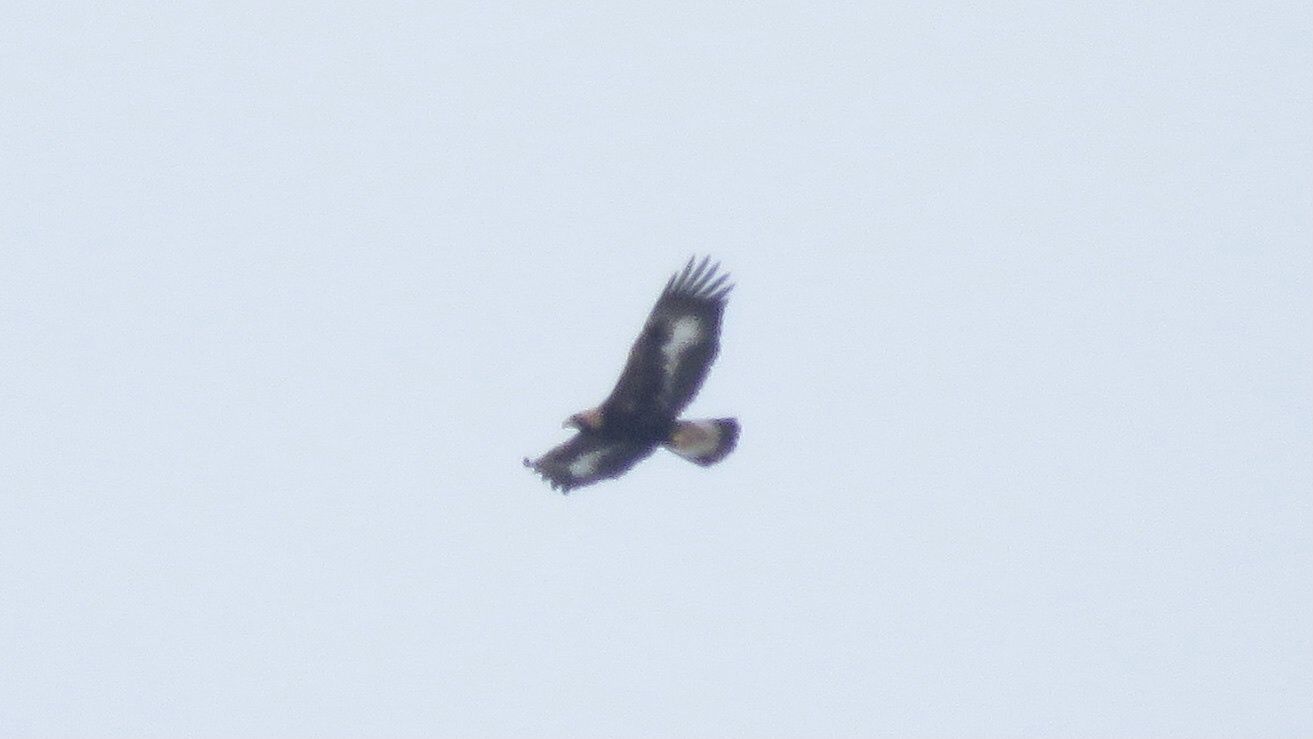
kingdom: Animalia
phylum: Chordata
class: Aves
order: Accipitriformes
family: Accipitridae
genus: Aquila
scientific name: Aquila chrysaetos
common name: Golden eagle
